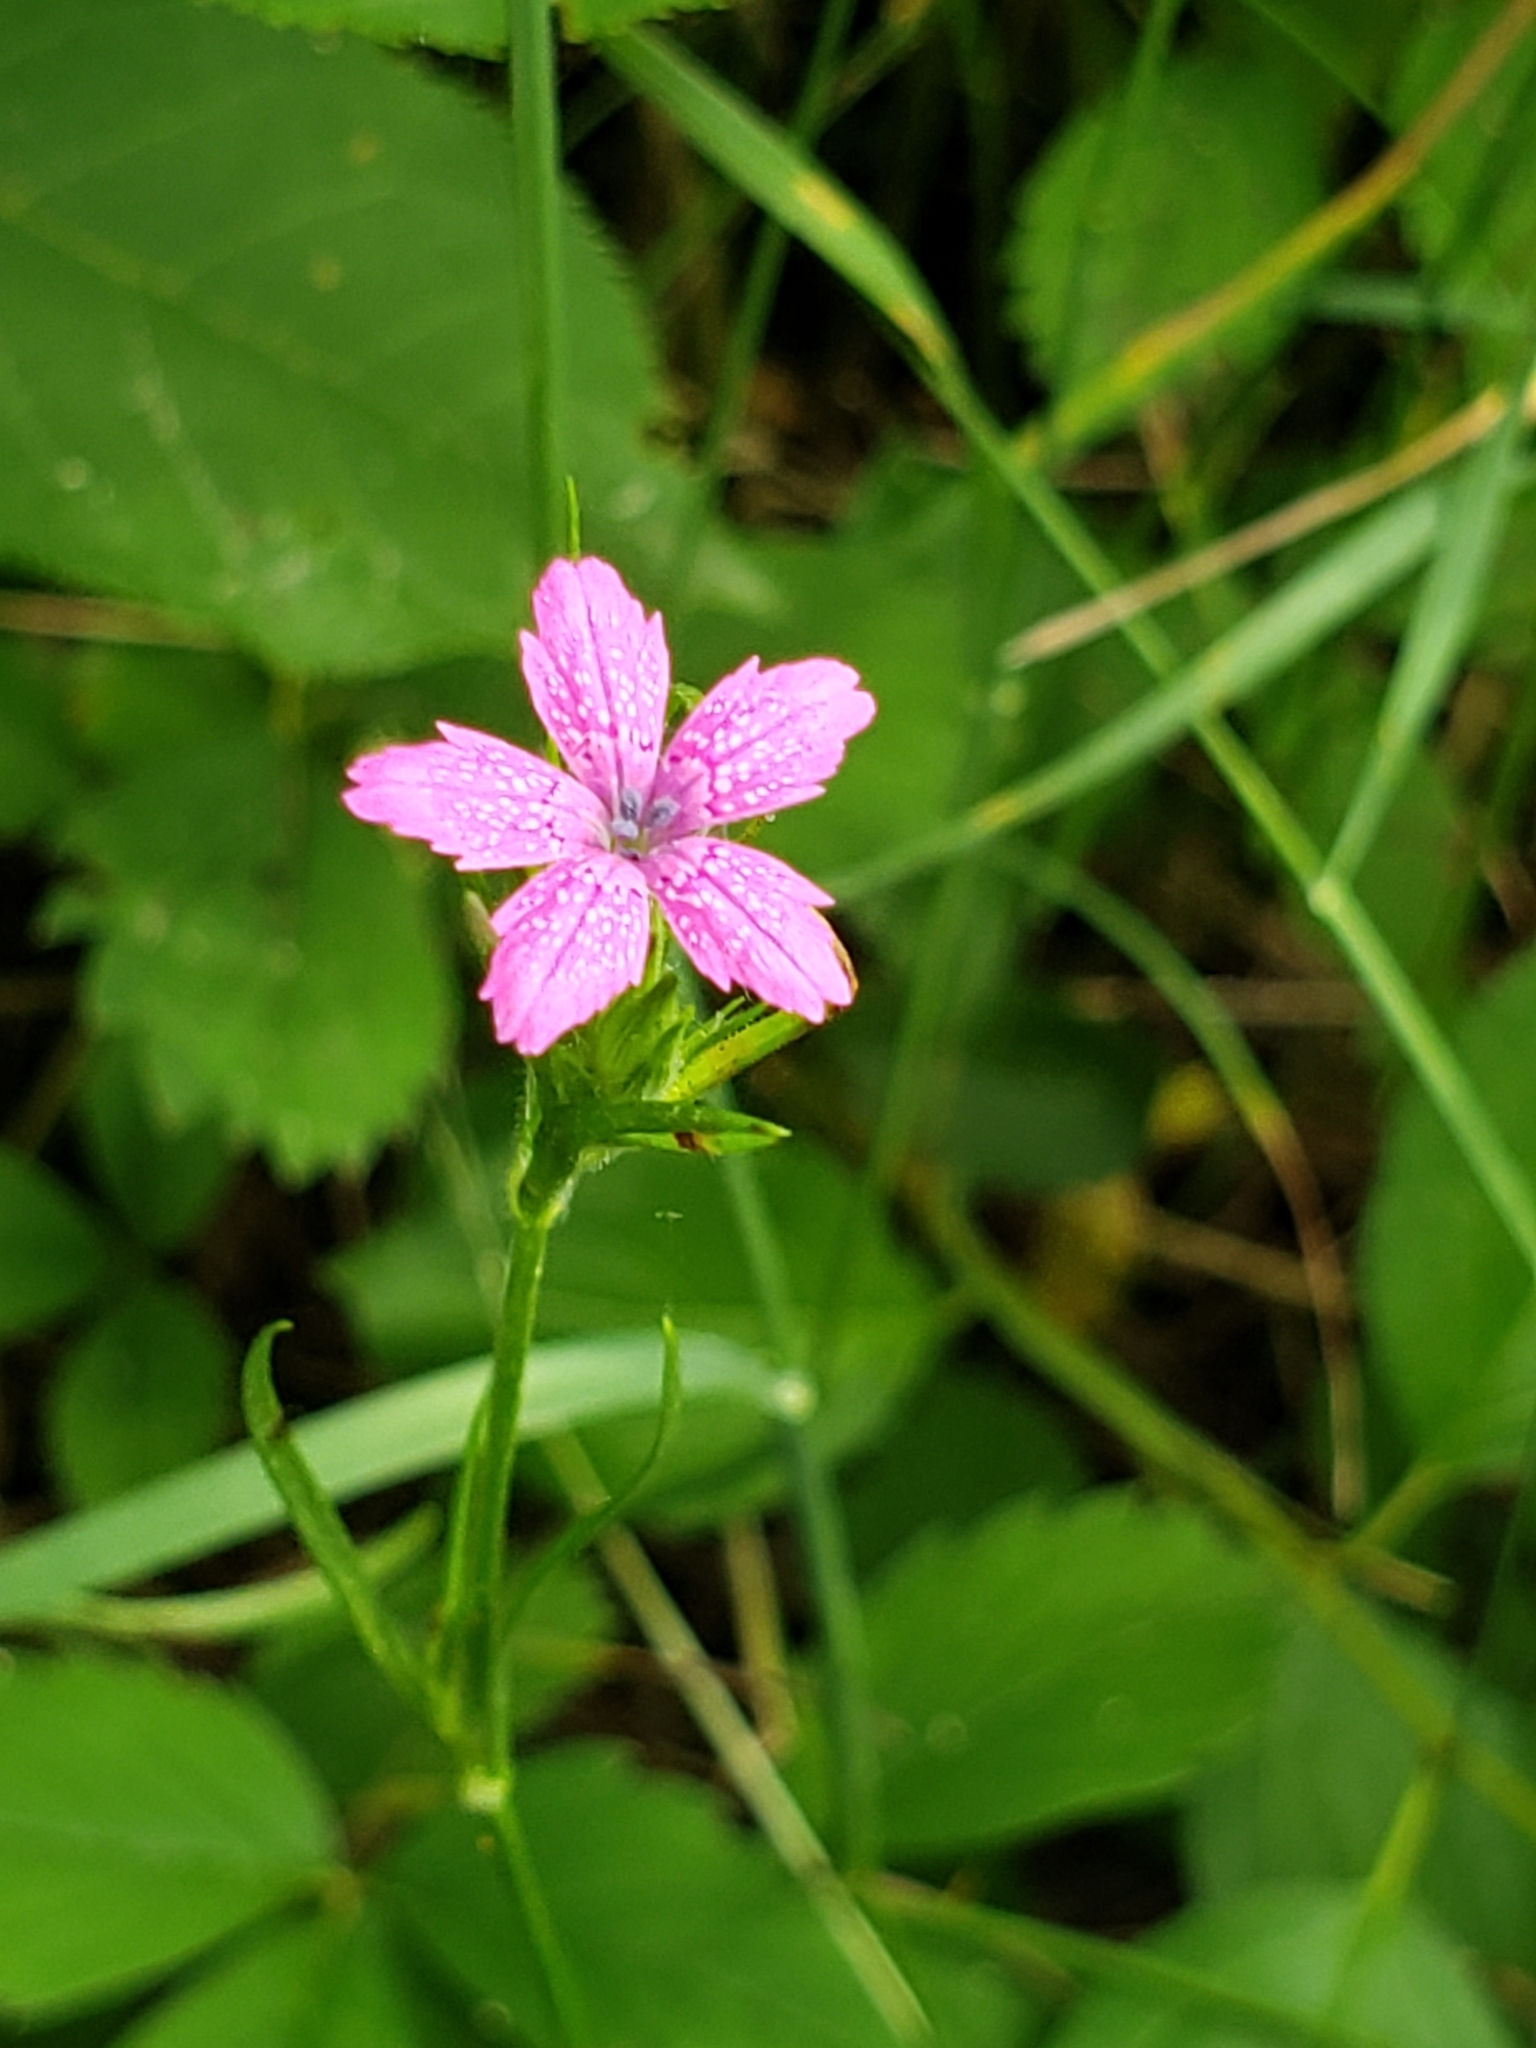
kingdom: Plantae
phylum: Tracheophyta
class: Magnoliopsida
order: Caryophyllales
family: Caryophyllaceae
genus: Dianthus
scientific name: Dianthus armeria
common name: Deptford pink
